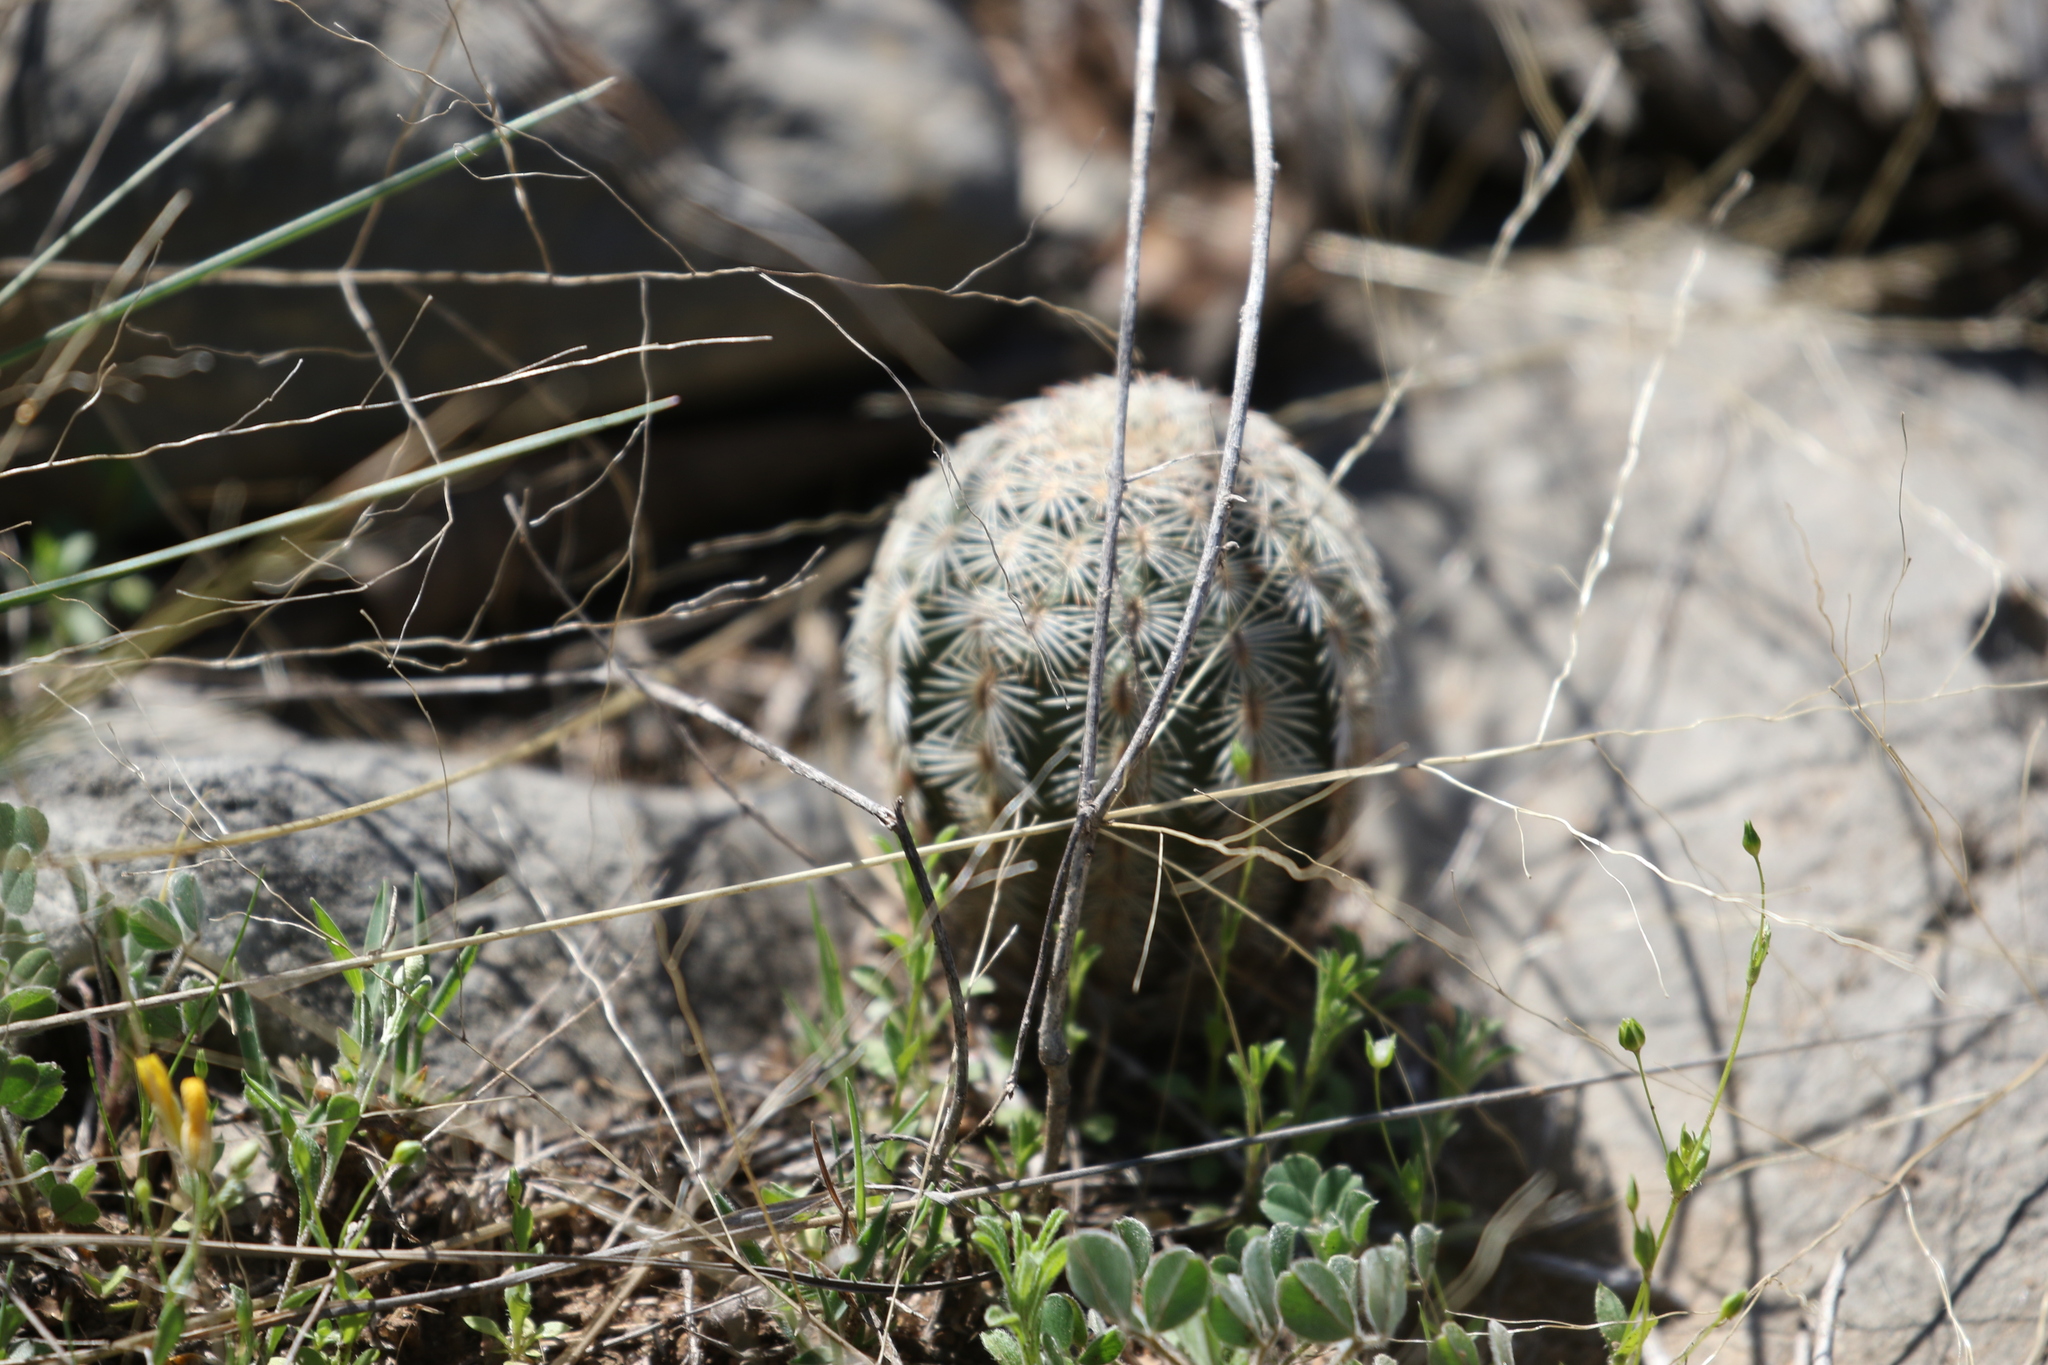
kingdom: Plantae
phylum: Tracheophyta
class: Magnoliopsida
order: Caryophyllales
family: Cactaceae
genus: Echinocereus
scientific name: Echinocereus reichenbachii
